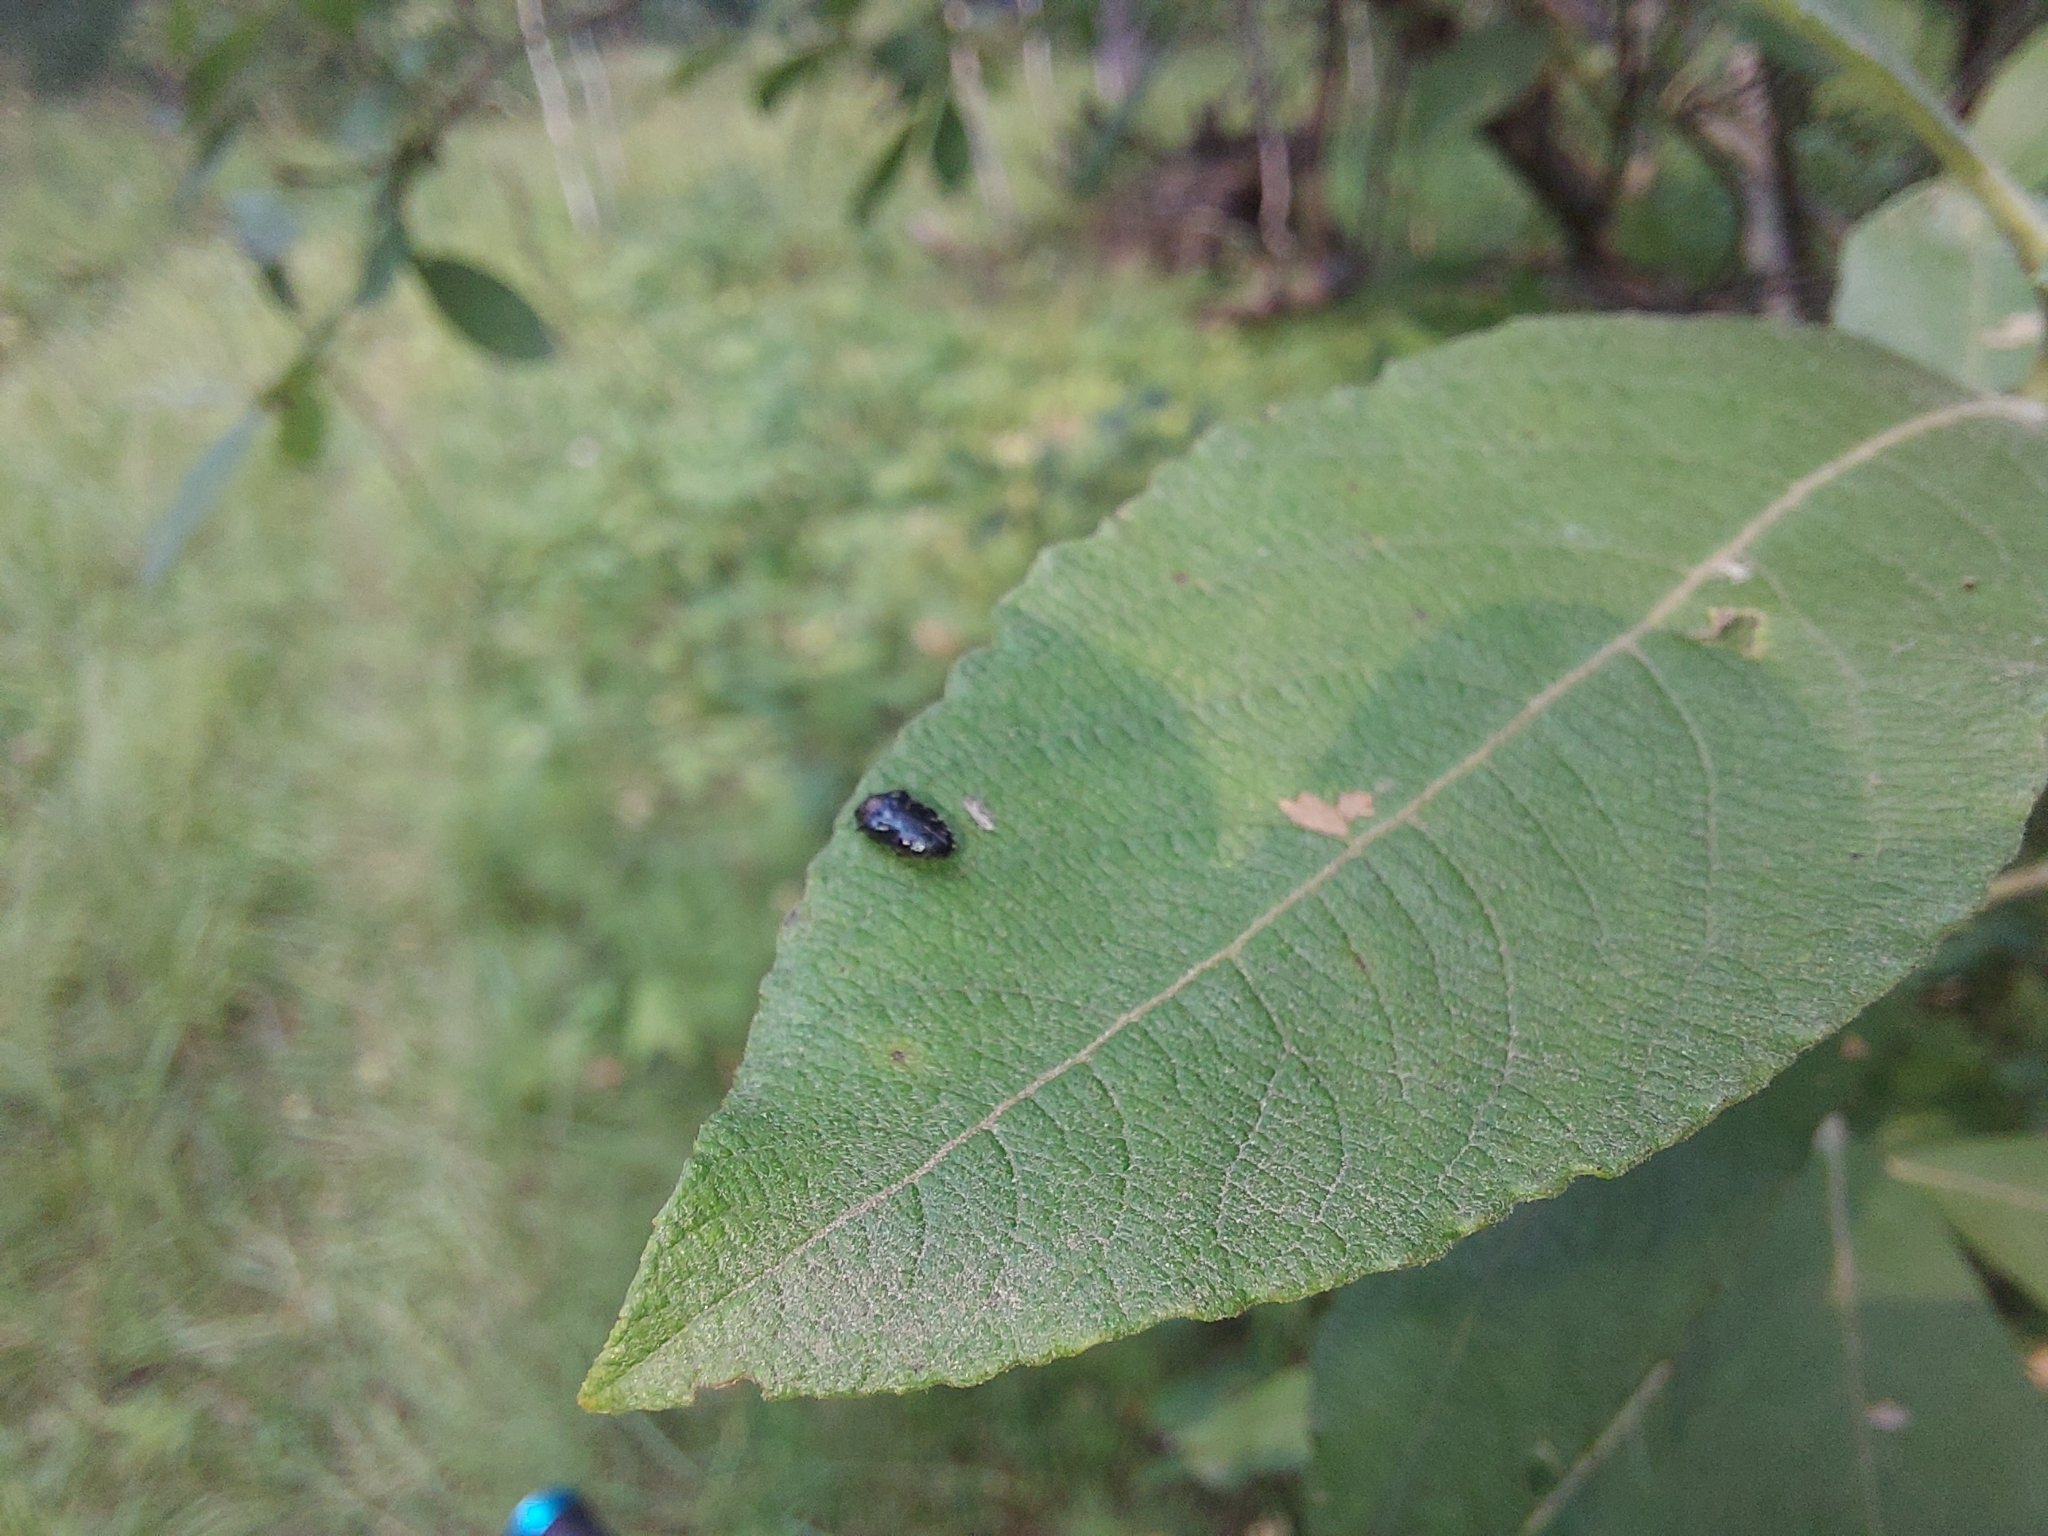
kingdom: Animalia
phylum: Arthropoda
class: Insecta
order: Coleoptera
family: Buprestidae
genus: Trachys
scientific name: Trachys minutus
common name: Metallic wood-boring beetle
